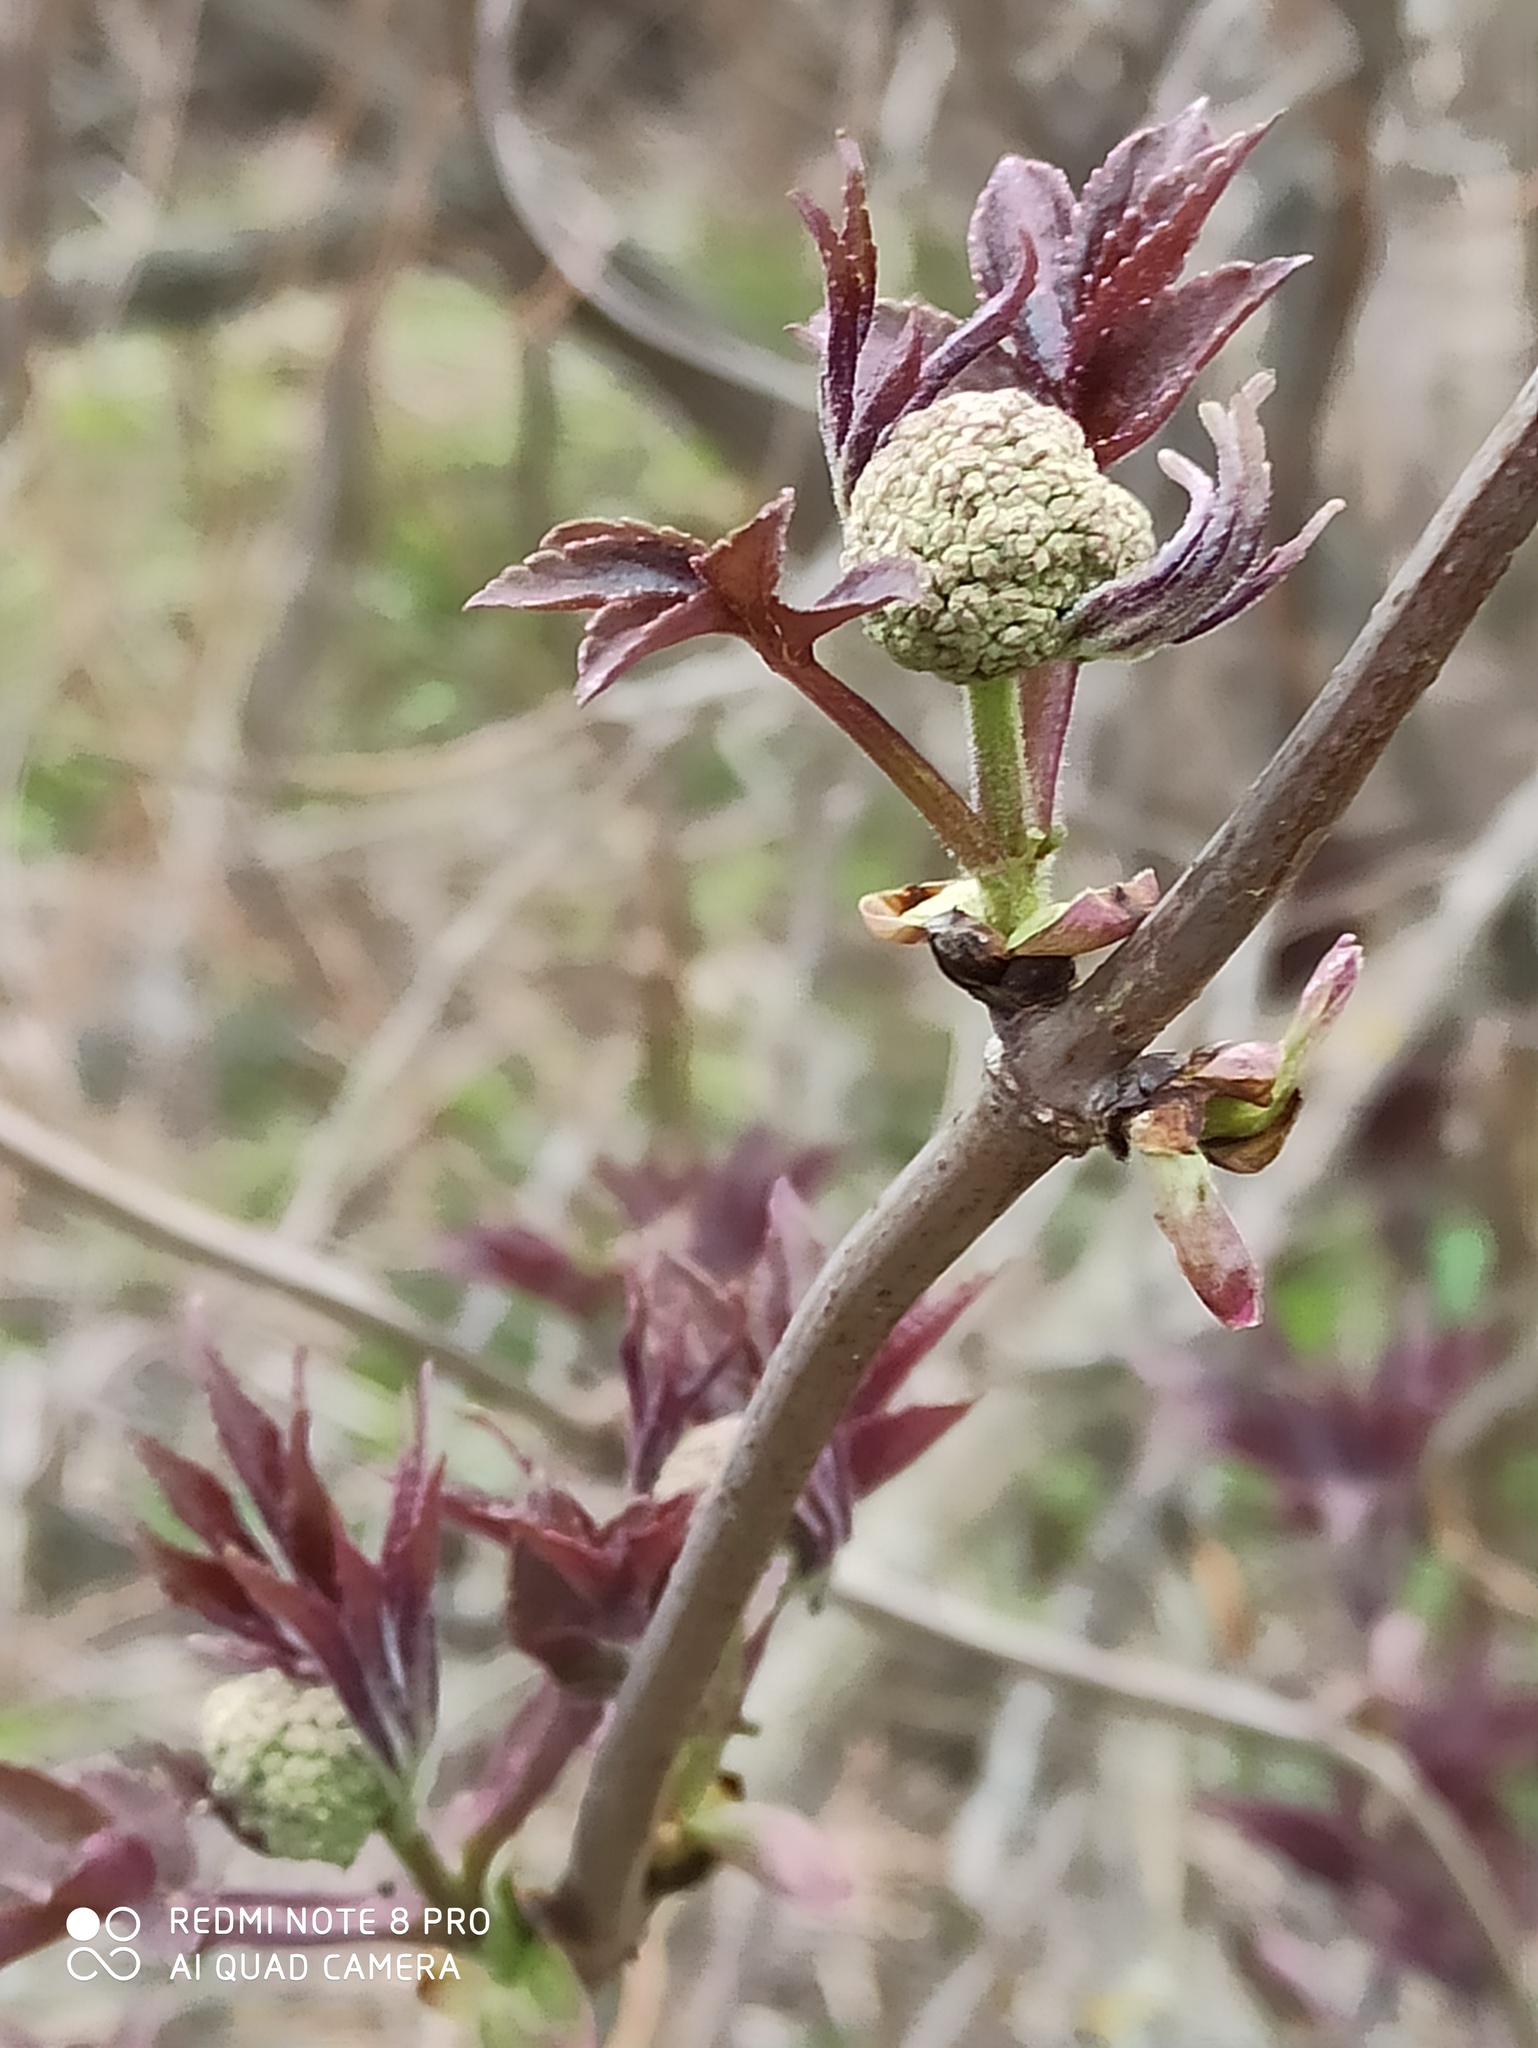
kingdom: Plantae
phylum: Tracheophyta
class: Magnoliopsida
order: Dipsacales
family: Viburnaceae
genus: Sambucus
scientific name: Sambucus racemosa
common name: Red-berried elder
